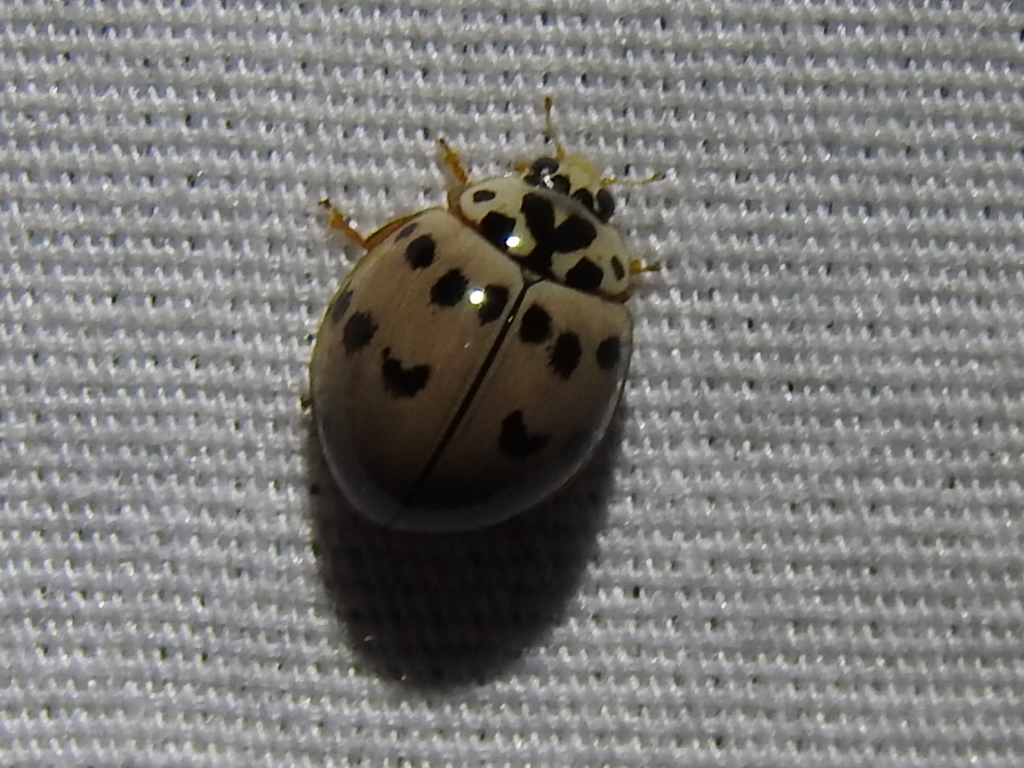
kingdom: Animalia
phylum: Arthropoda
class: Insecta
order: Coleoptera
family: Coccinellidae
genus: Olla
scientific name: Olla v-nigrum
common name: Ashy gray lady beetle
